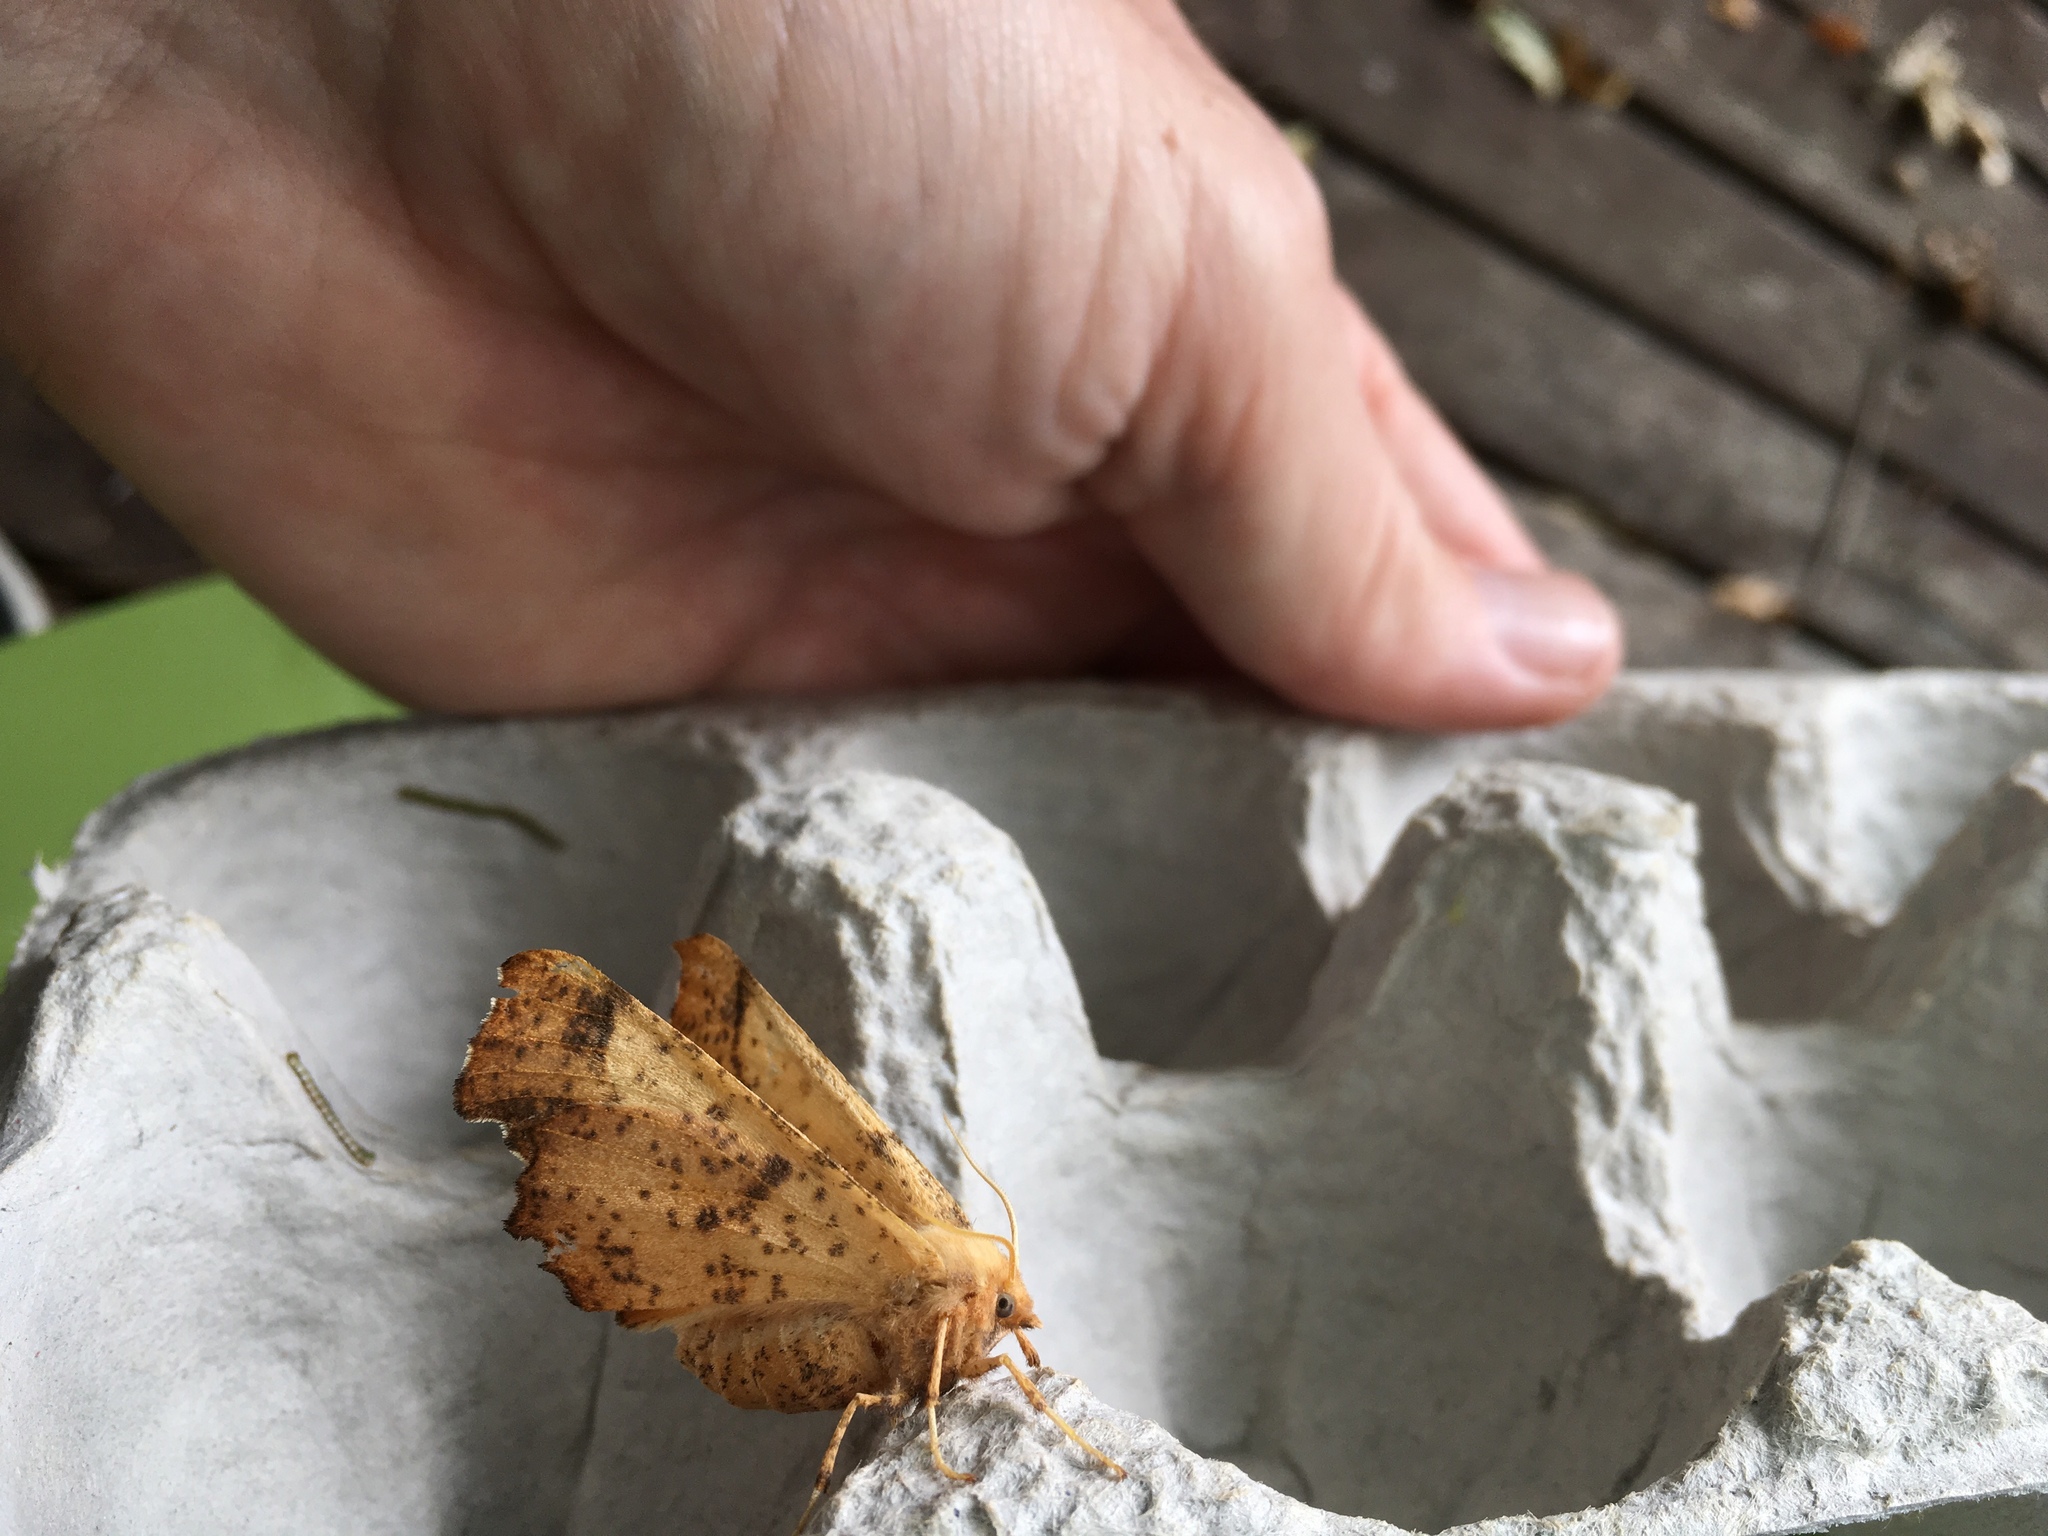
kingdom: Animalia
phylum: Arthropoda
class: Insecta
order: Lepidoptera
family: Geometridae
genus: Ennomos
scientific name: Ennomos magnaria
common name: Maple spanworm
